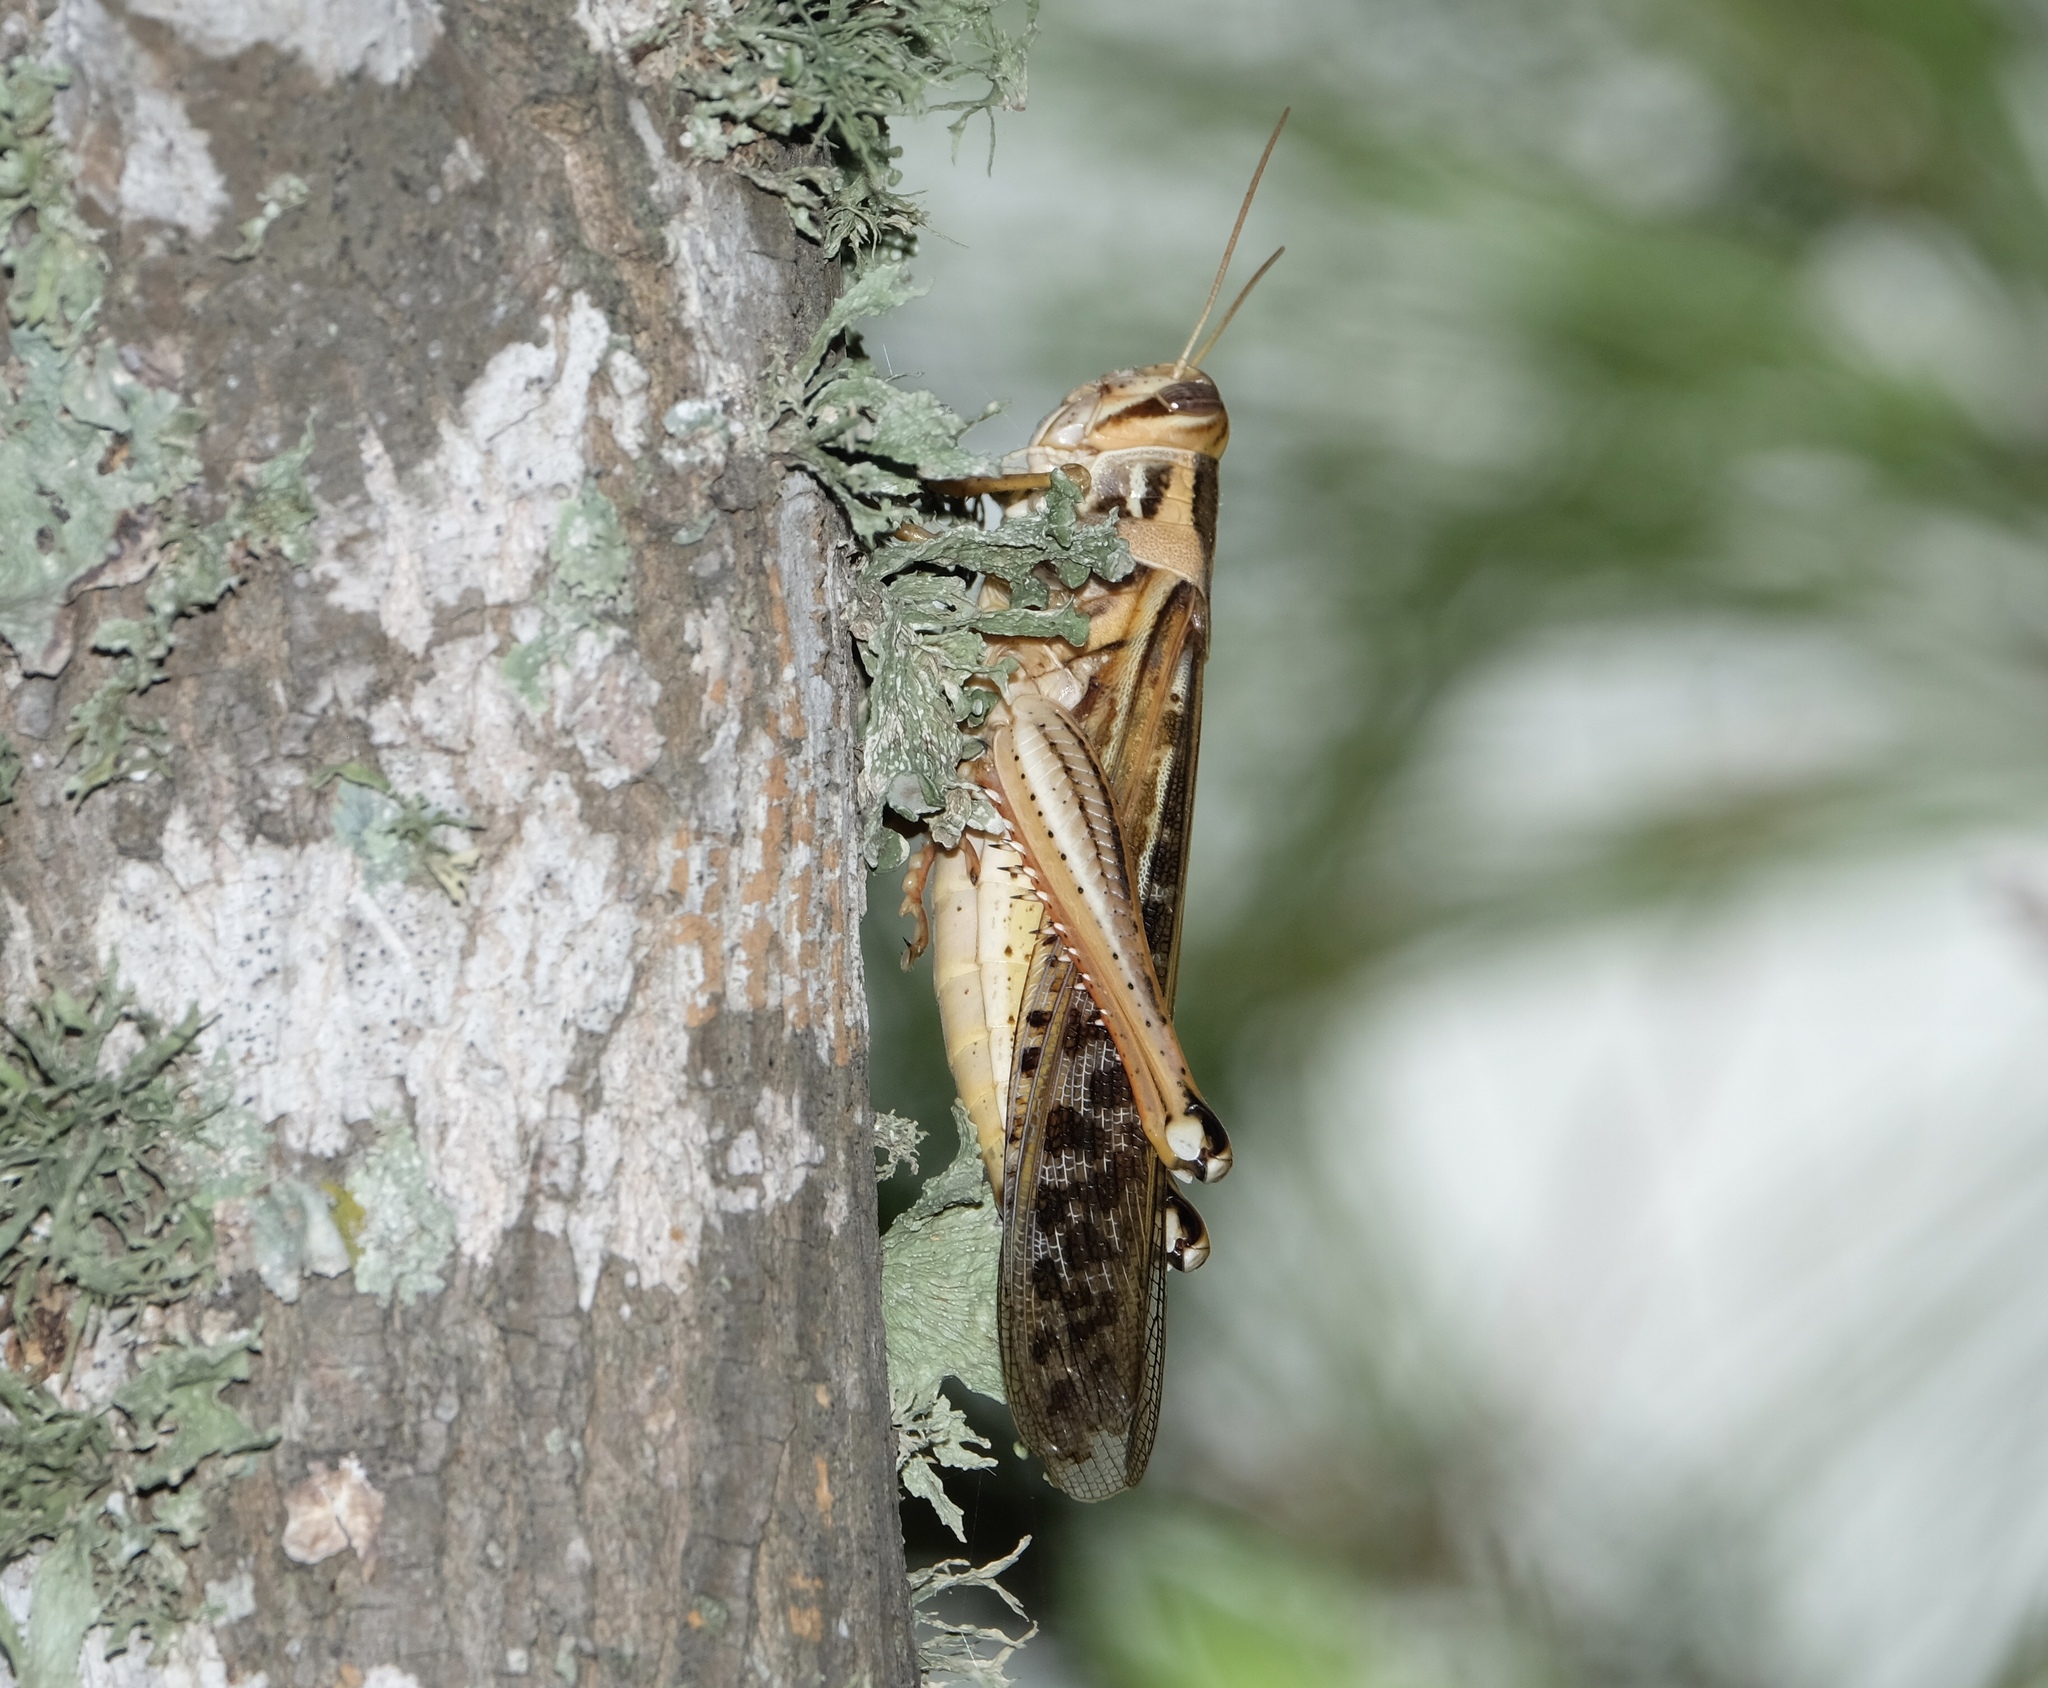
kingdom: Animalia
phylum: Arthropoda
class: Insecta
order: Orthoptera
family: Acrididae
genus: Schistocerca
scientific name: Schistocerca americana
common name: American bird locust
